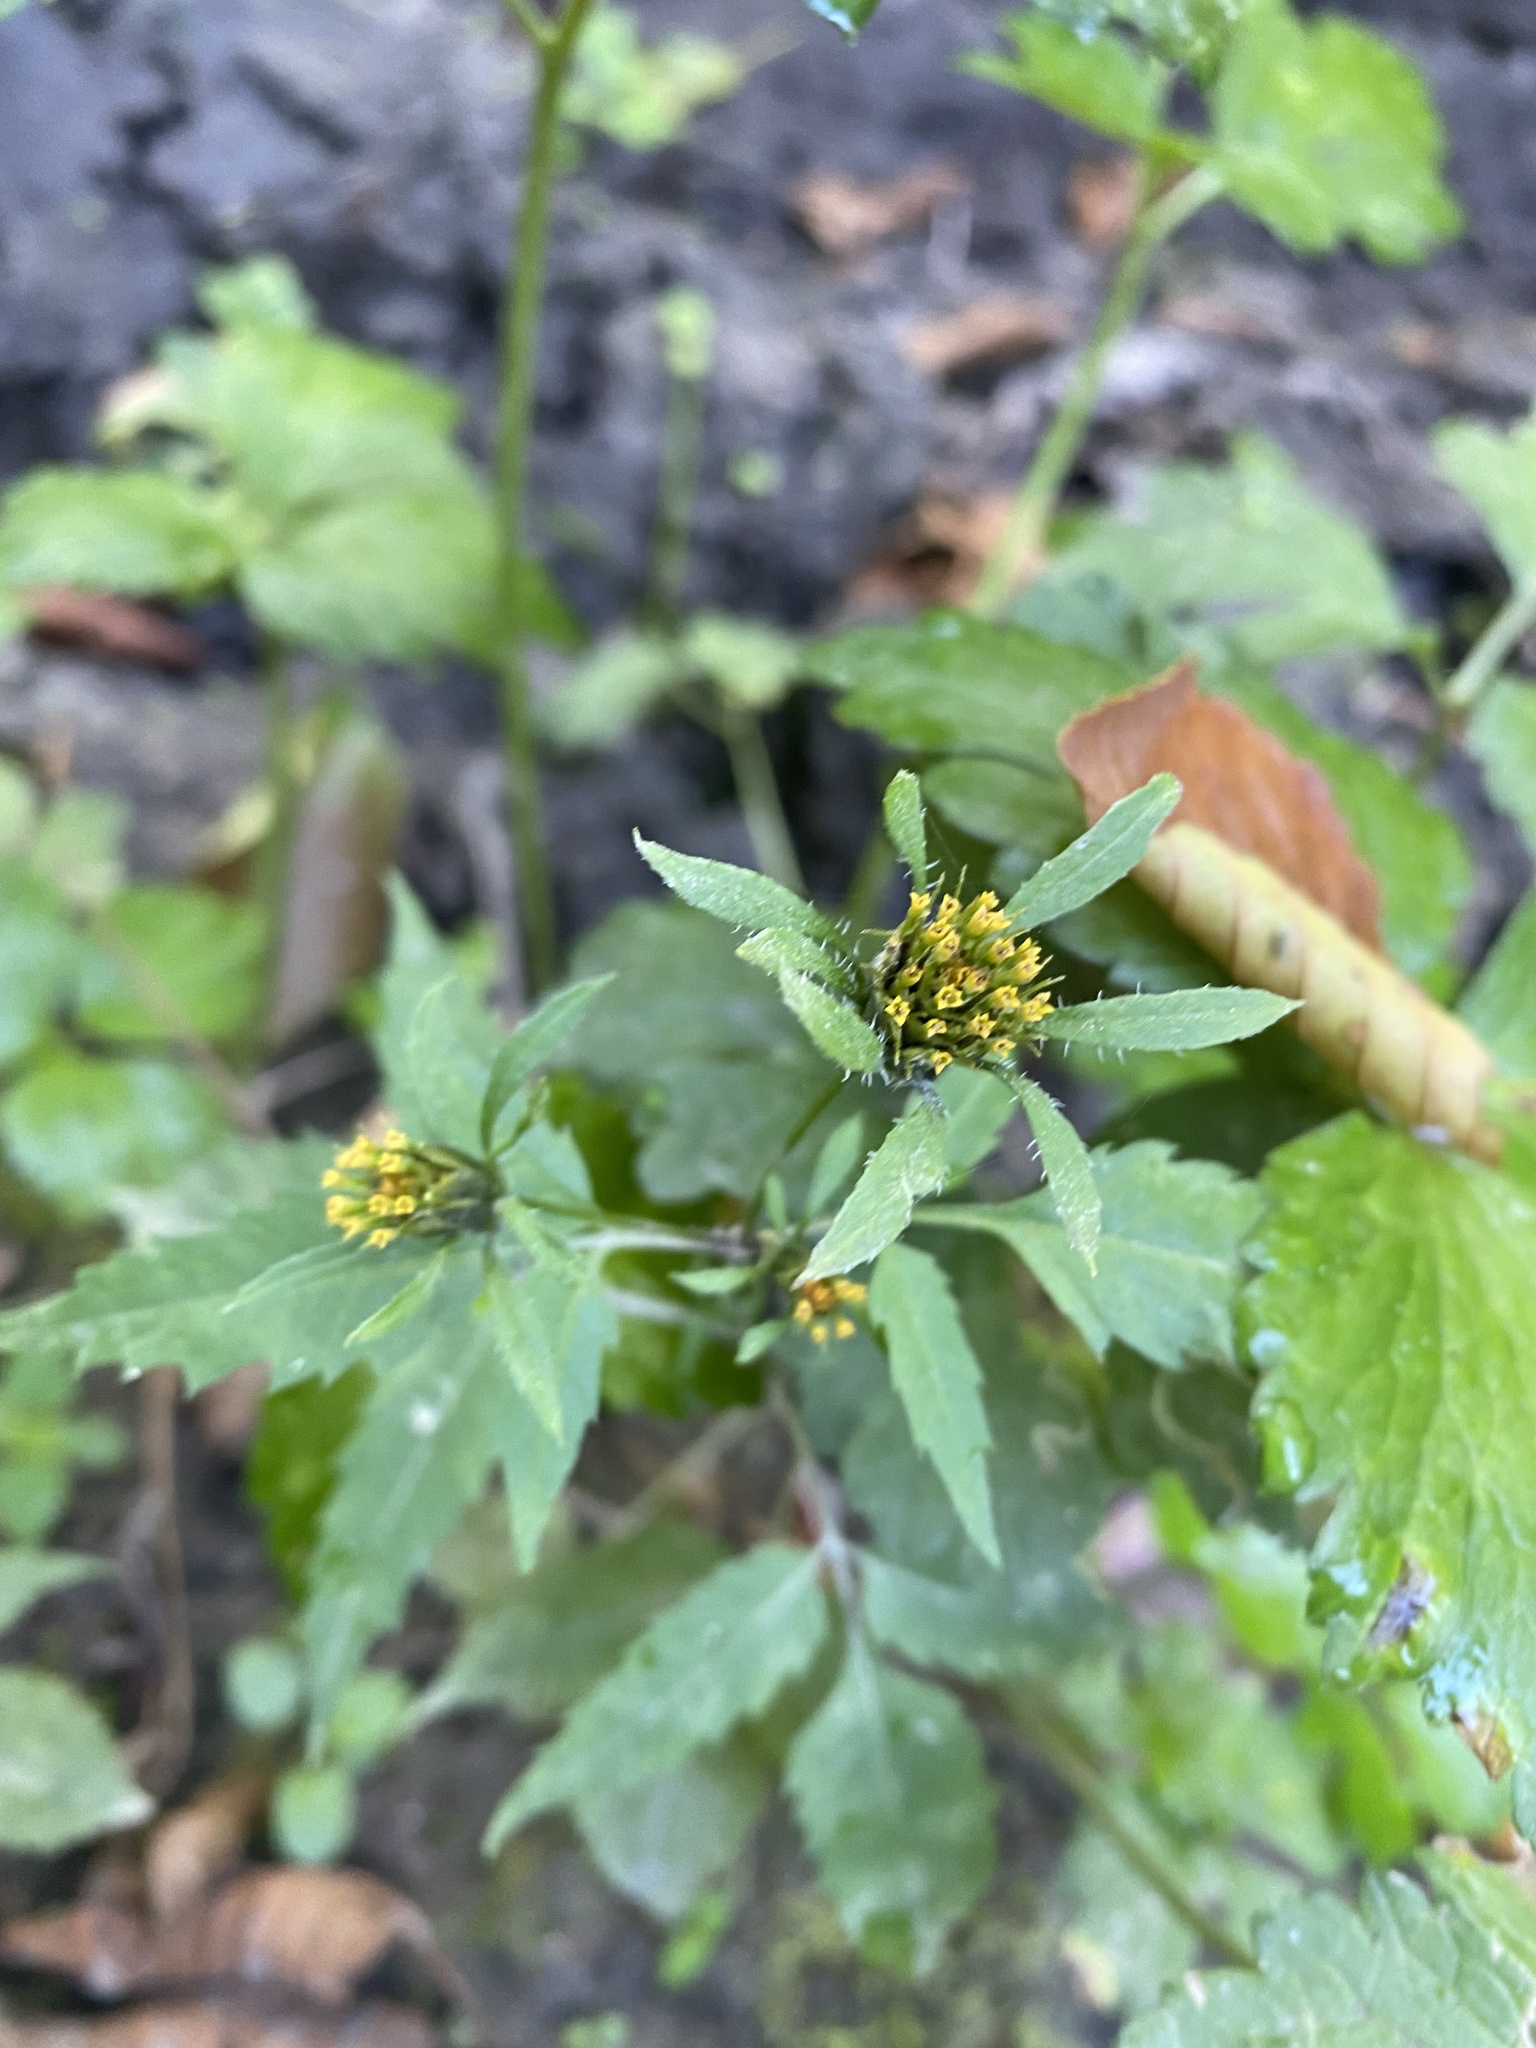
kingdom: Plantae
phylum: Tracheophyta
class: Magnoliopsida
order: Asterales
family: Asteraceae
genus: Bidens
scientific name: Bidens frondosa
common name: Beggarticks
